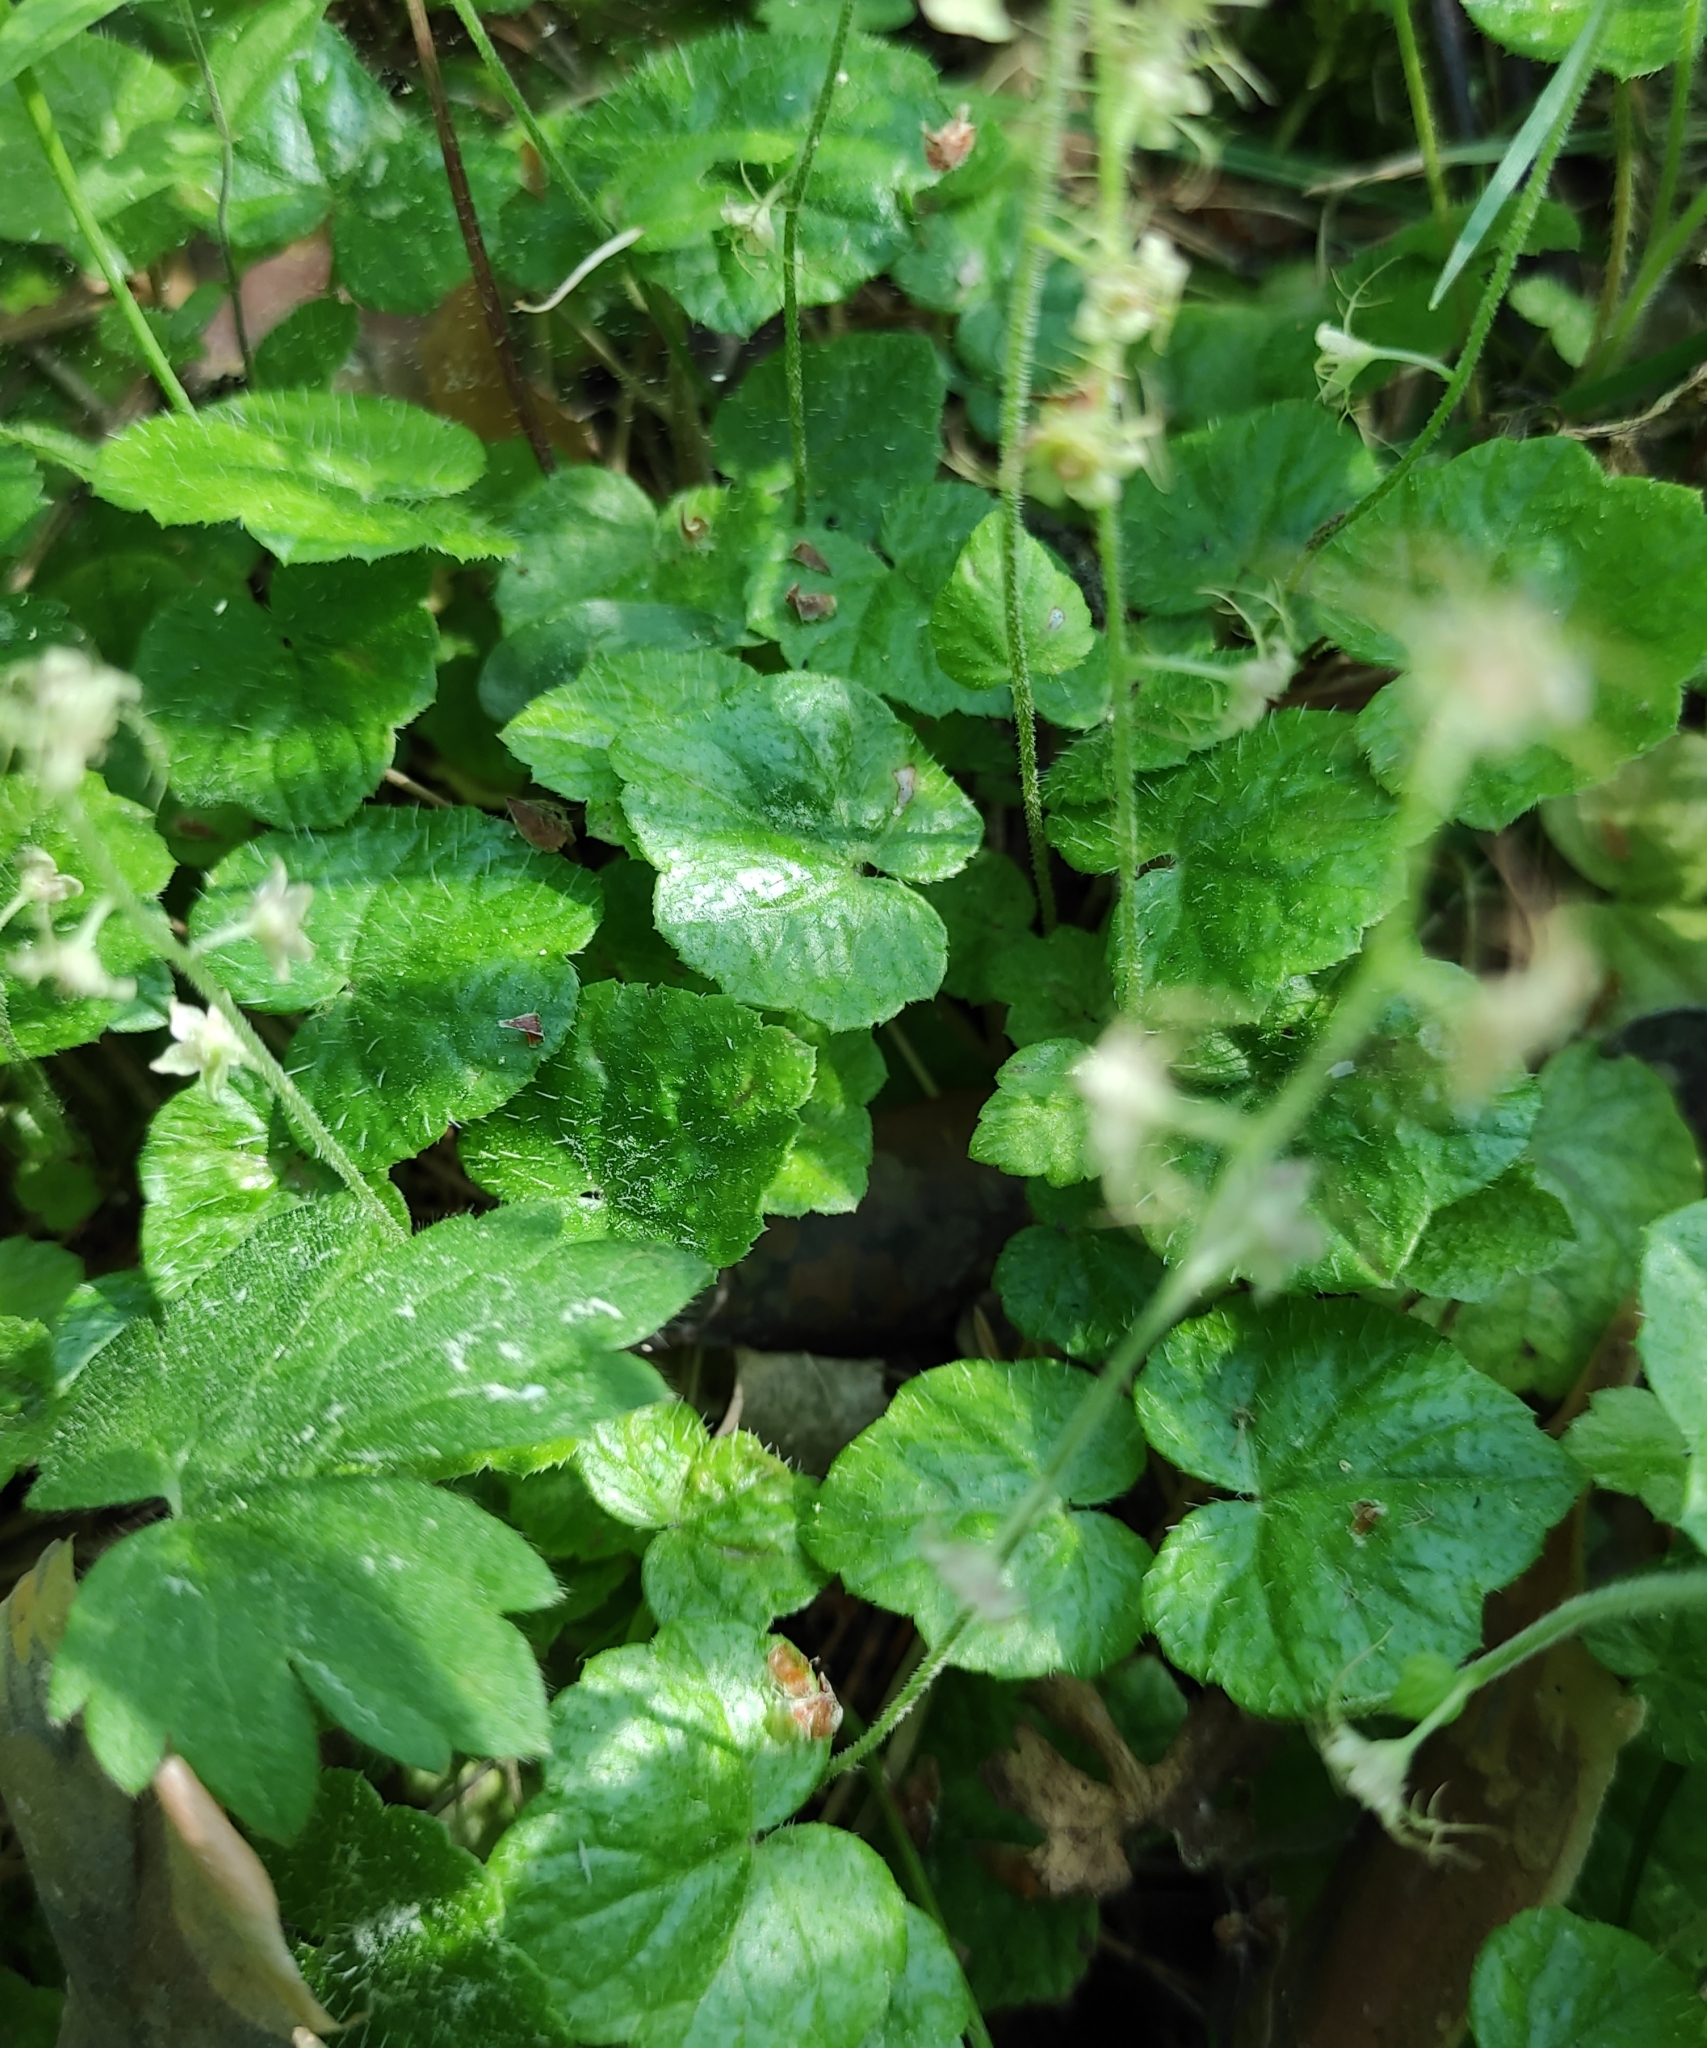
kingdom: Plantae
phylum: Tracheophyta
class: Magnoliopsida
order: Saxifragales
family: Saxifragaceae
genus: Mitella
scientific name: Mitella nuda
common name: Bare-stemmed bishop's-cap
